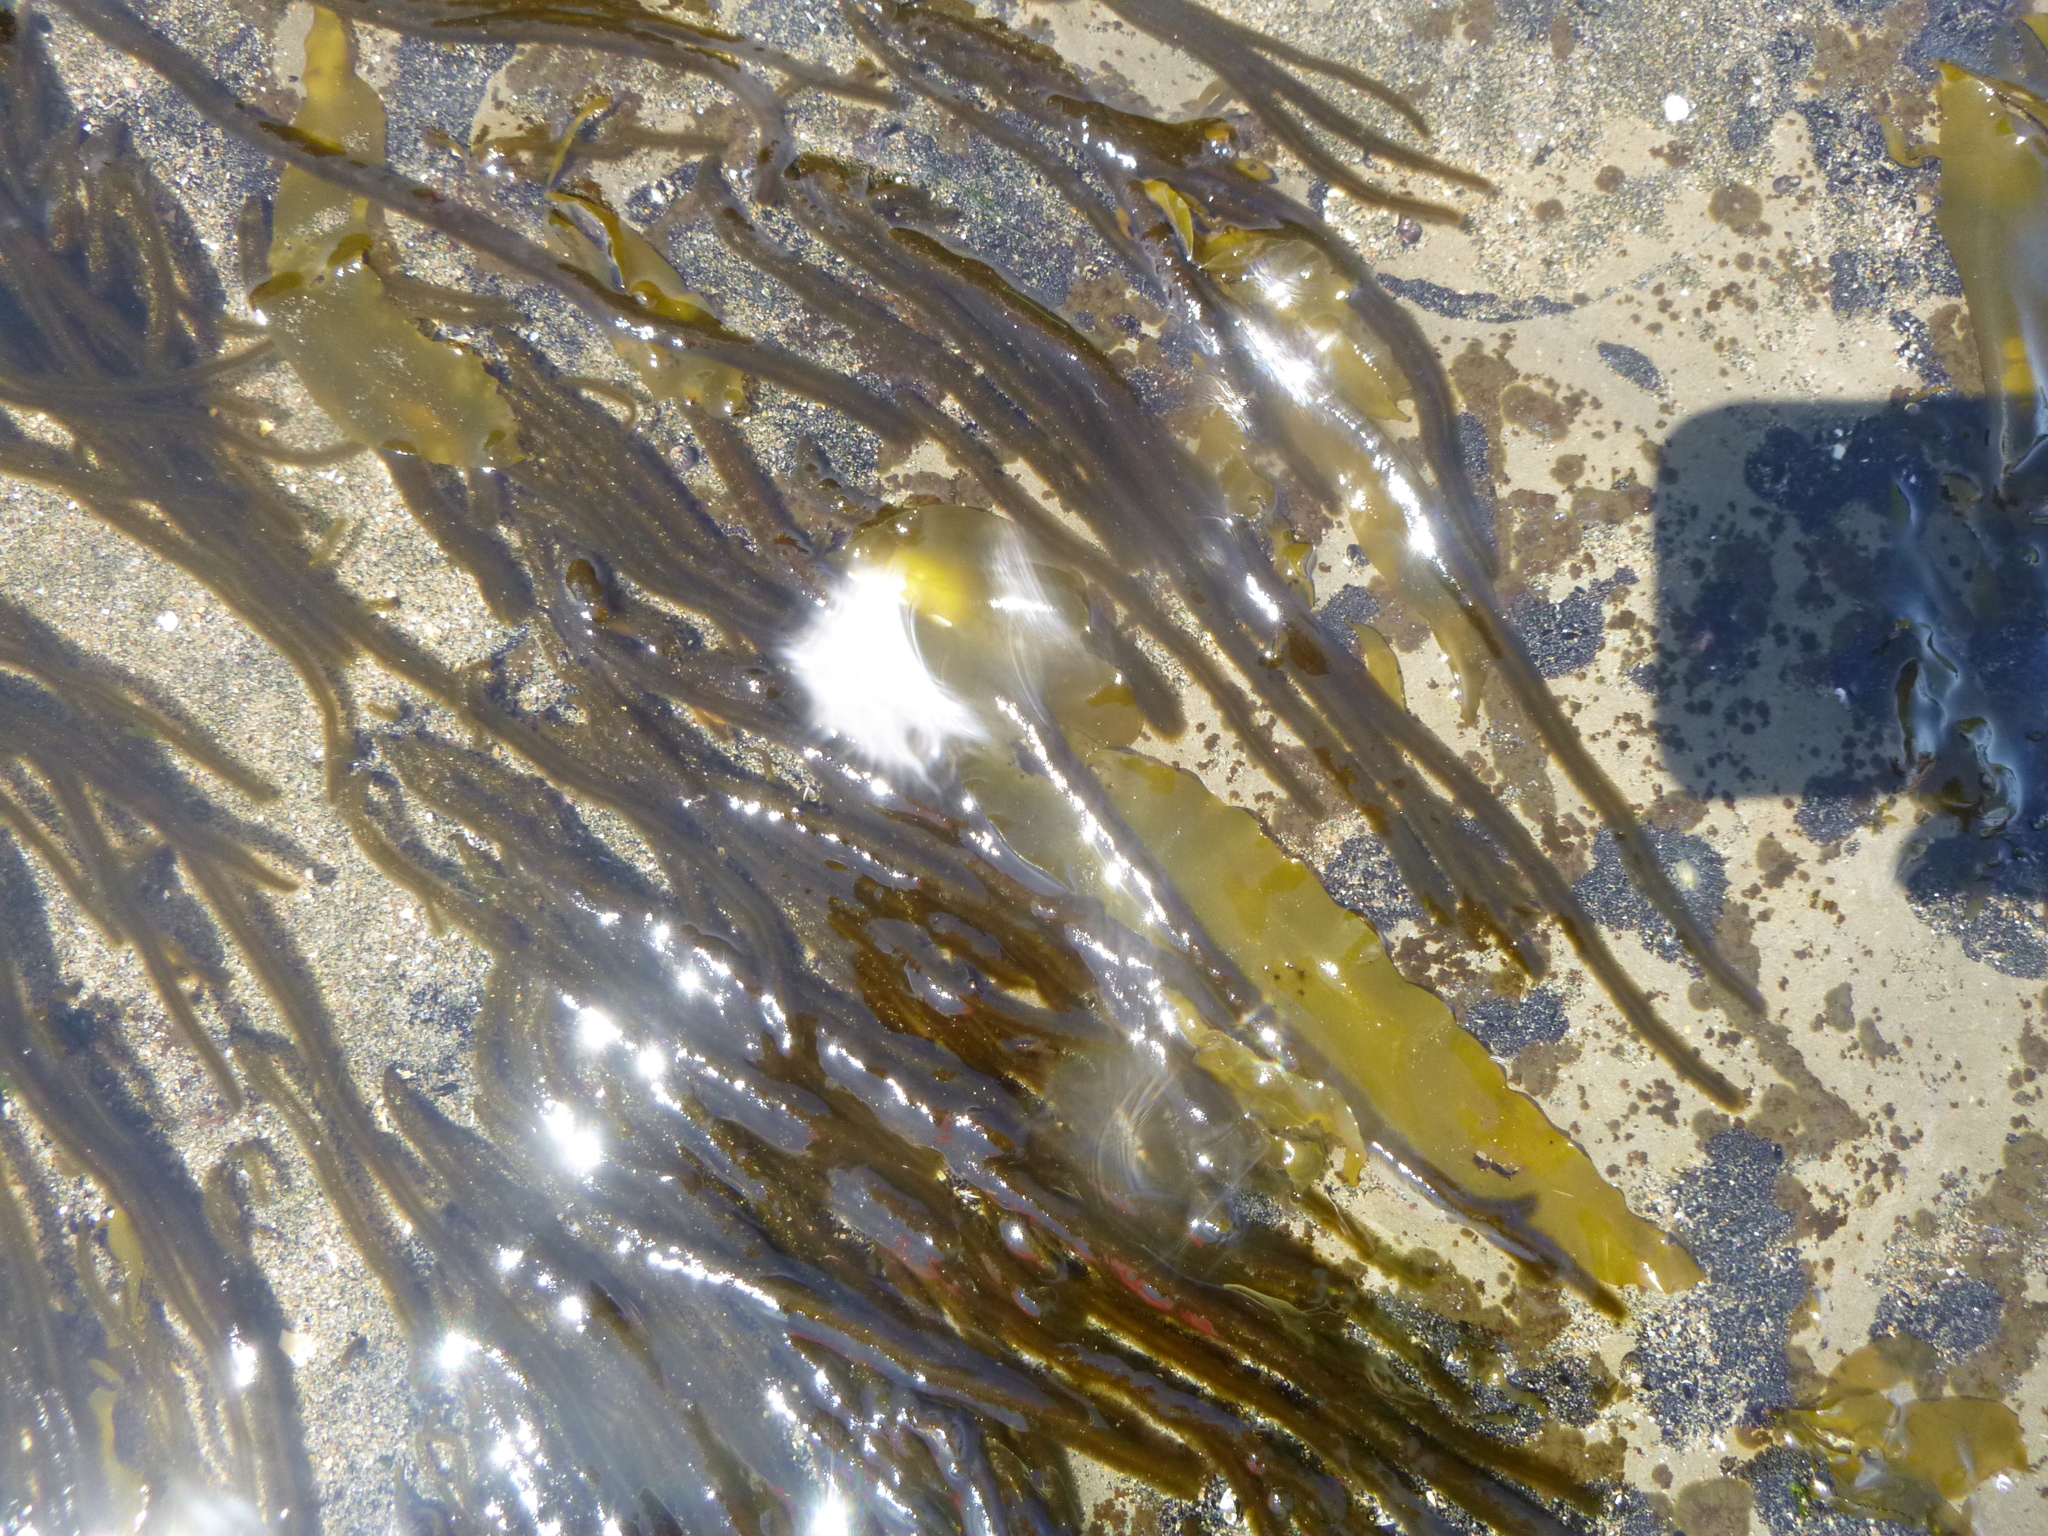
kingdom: Chromista
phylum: Ochrophyta
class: Phaeophyceae
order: Ectocarpales
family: Chordariaceae
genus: Myriogloea
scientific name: Myriogloea intestinalis
